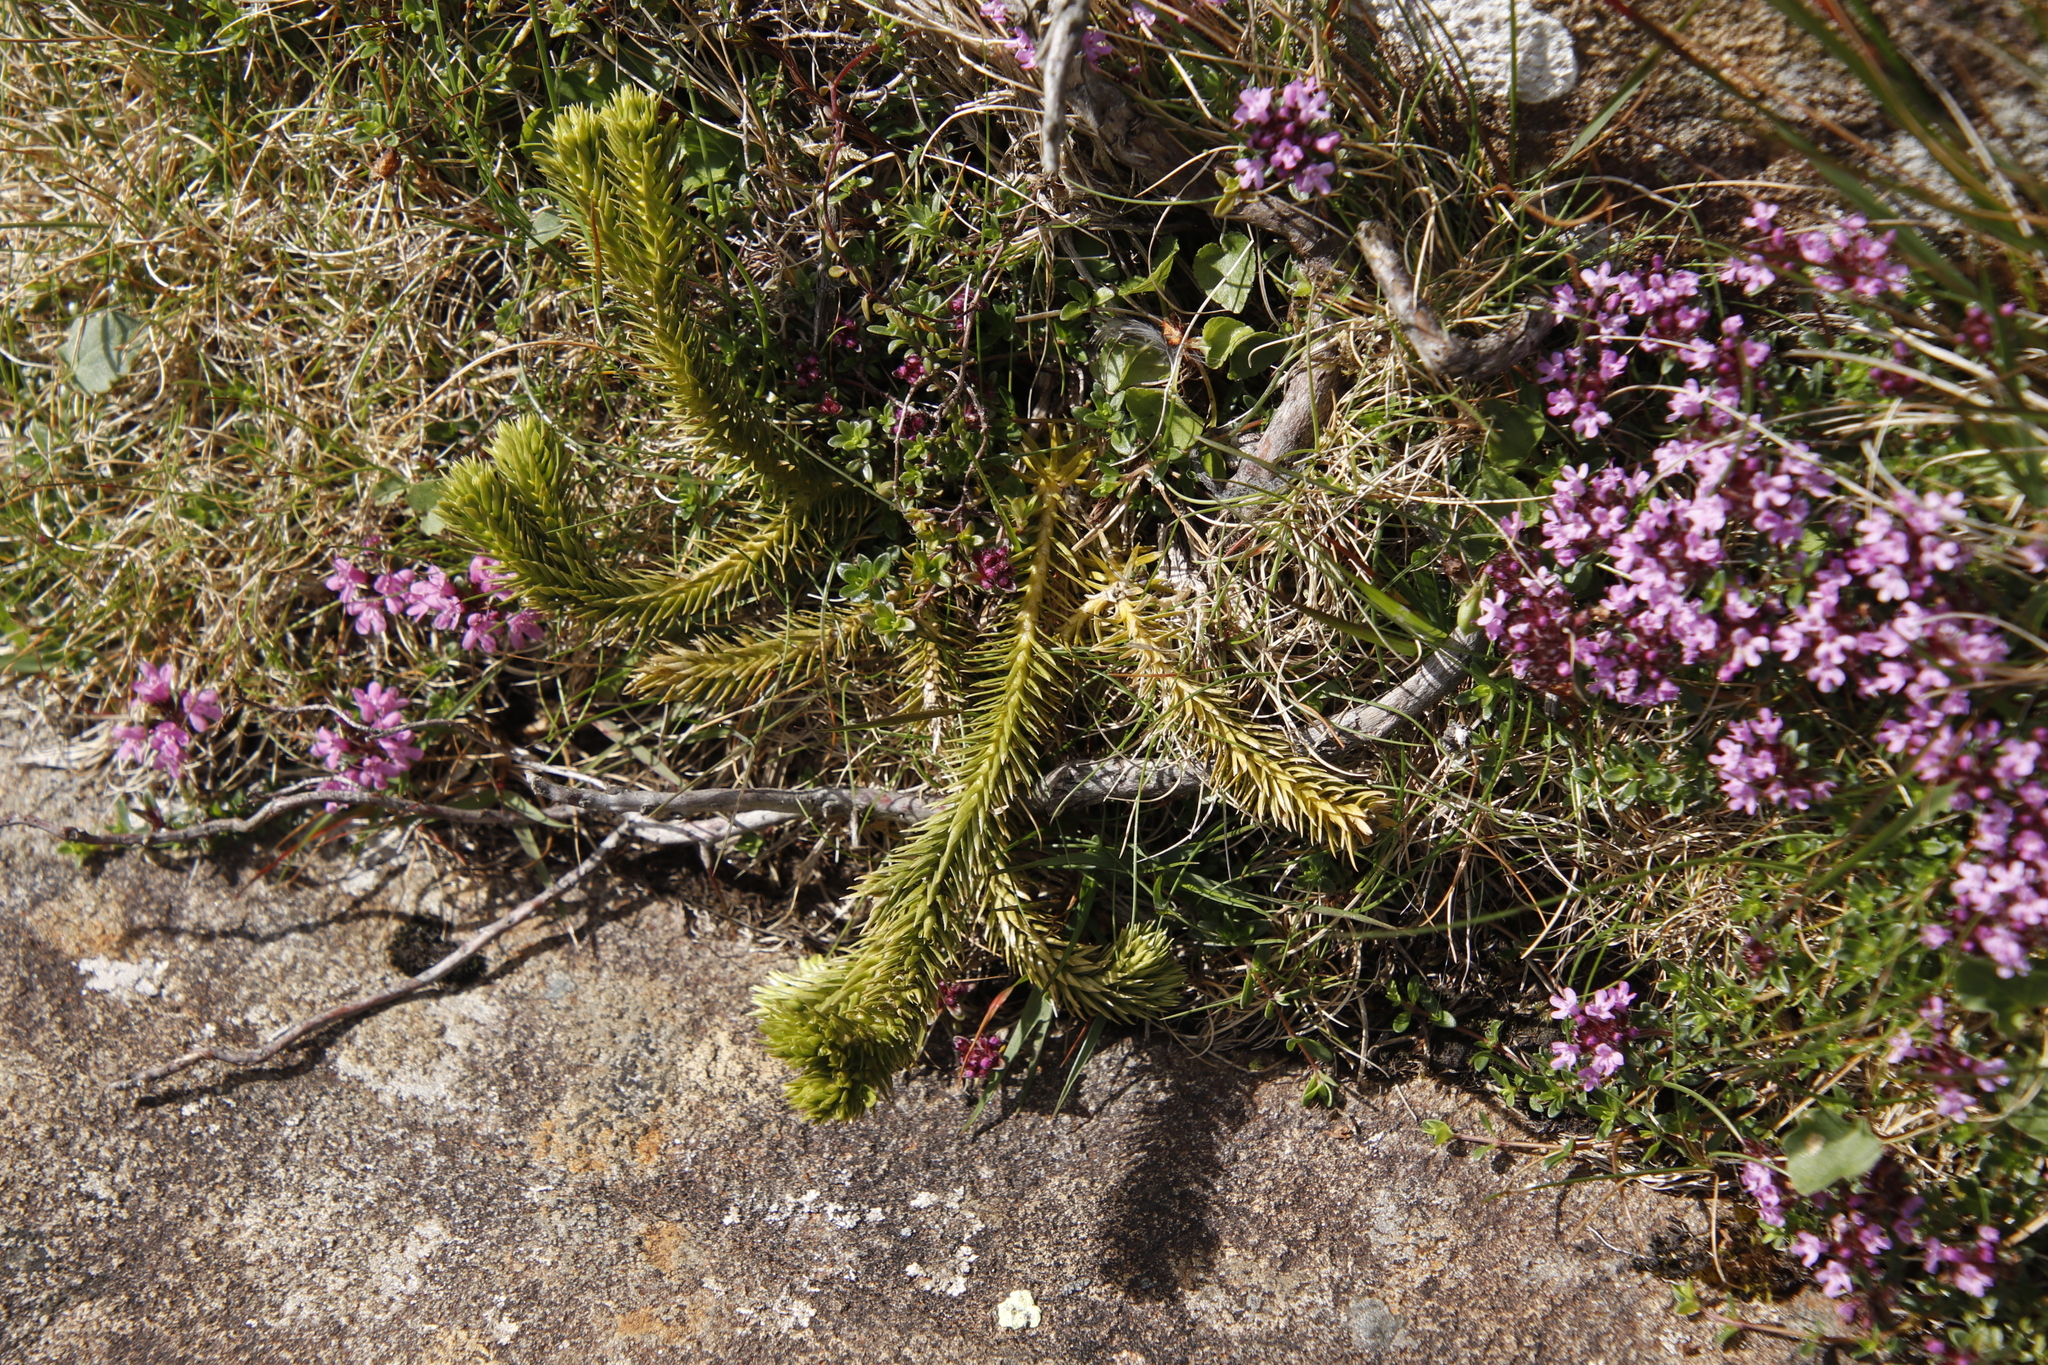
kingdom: Plantae
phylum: Tracheophyta
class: Lycopodiopsida
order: Lycopodiales
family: Lycopodiaceae
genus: Huperzia
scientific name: Huperzia selago
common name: Northern firmoss
